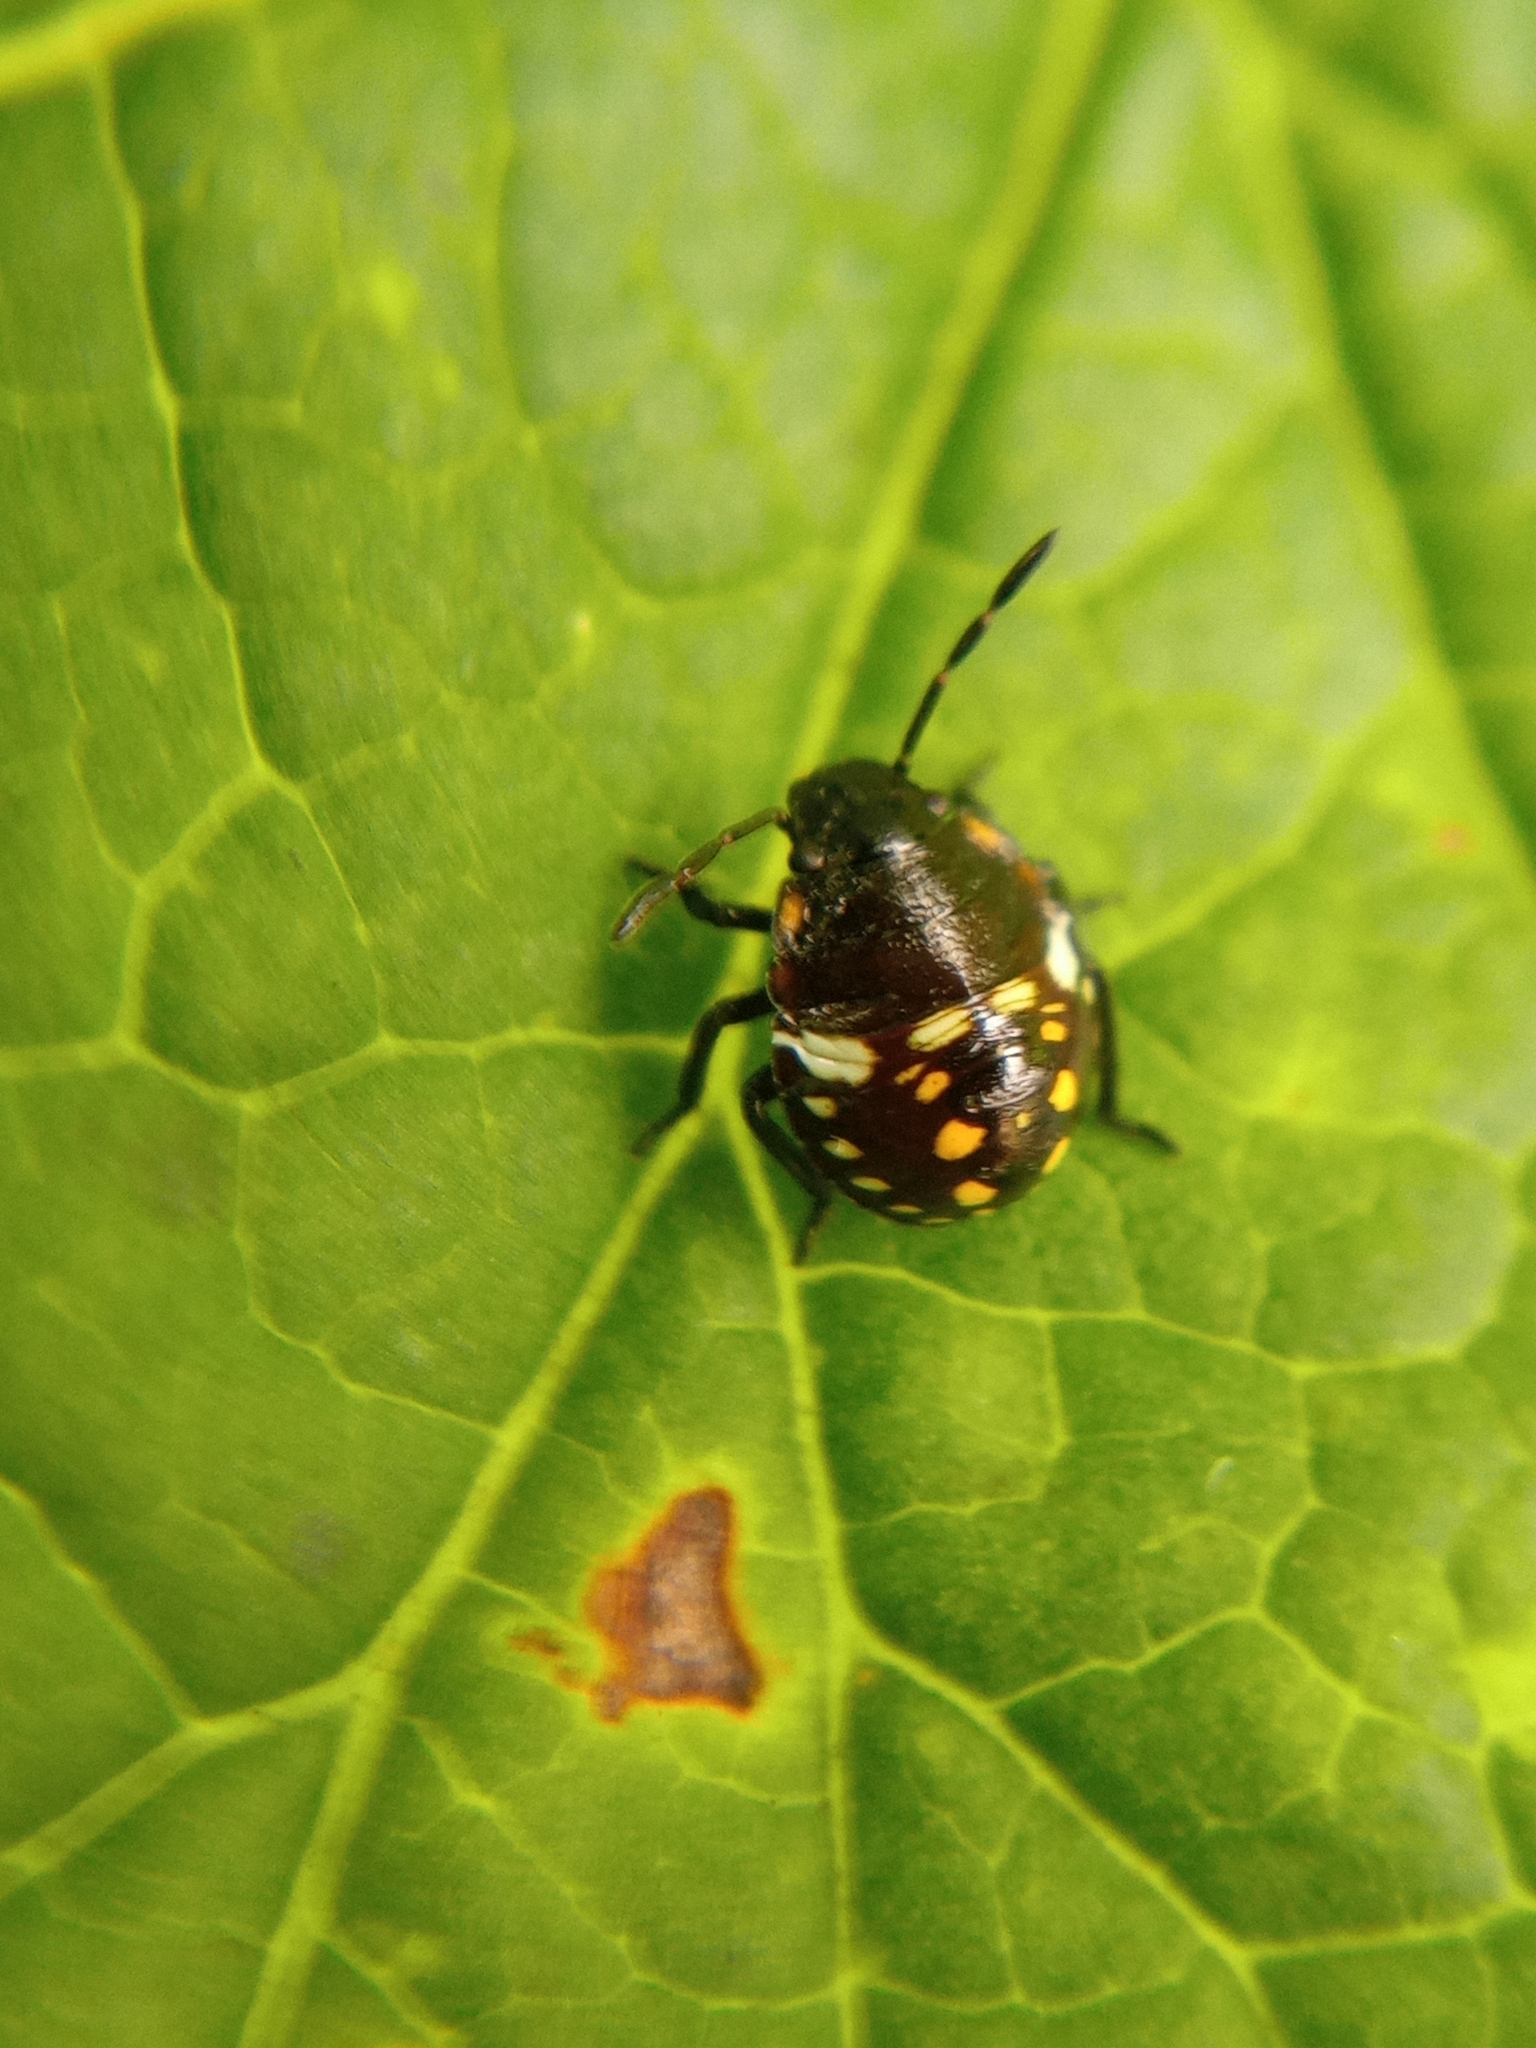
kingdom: Animalia
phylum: Arthropoda
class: Insecta
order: Hemiptera
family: Pentatomidae
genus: Nezara
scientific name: Nezara viridula
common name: Southern green stink bug
